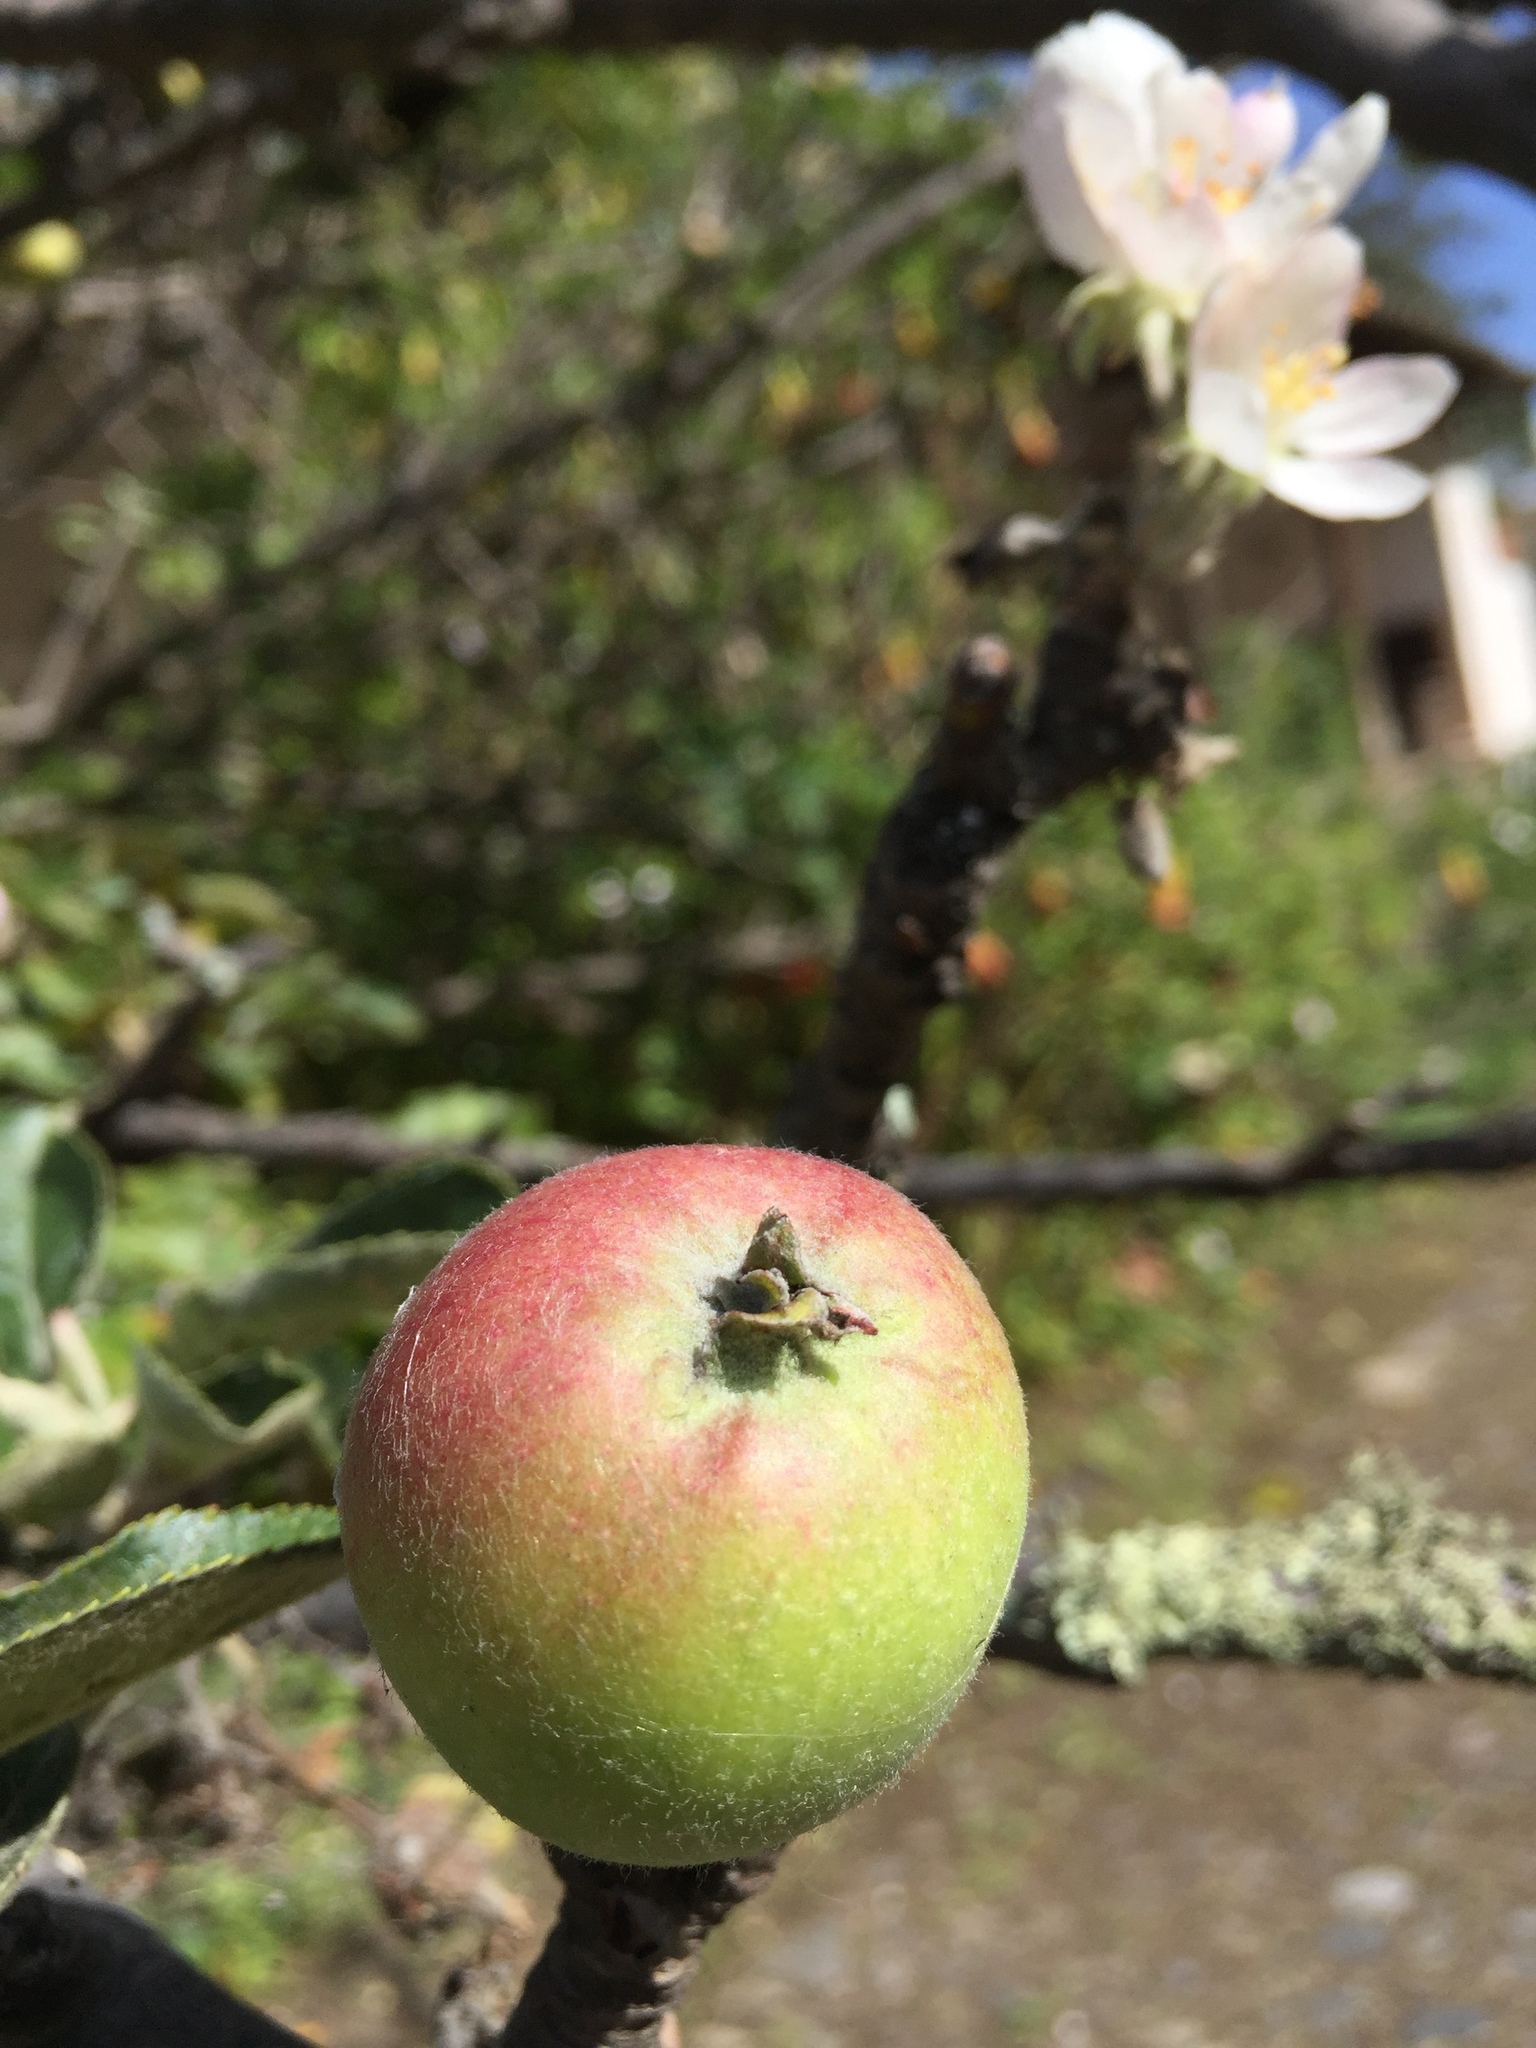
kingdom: Plantae
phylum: Tracheophyta
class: Magnoliopsida
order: Rosales
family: Rosaceae
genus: Malus
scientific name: Malus domestica
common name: Apple
